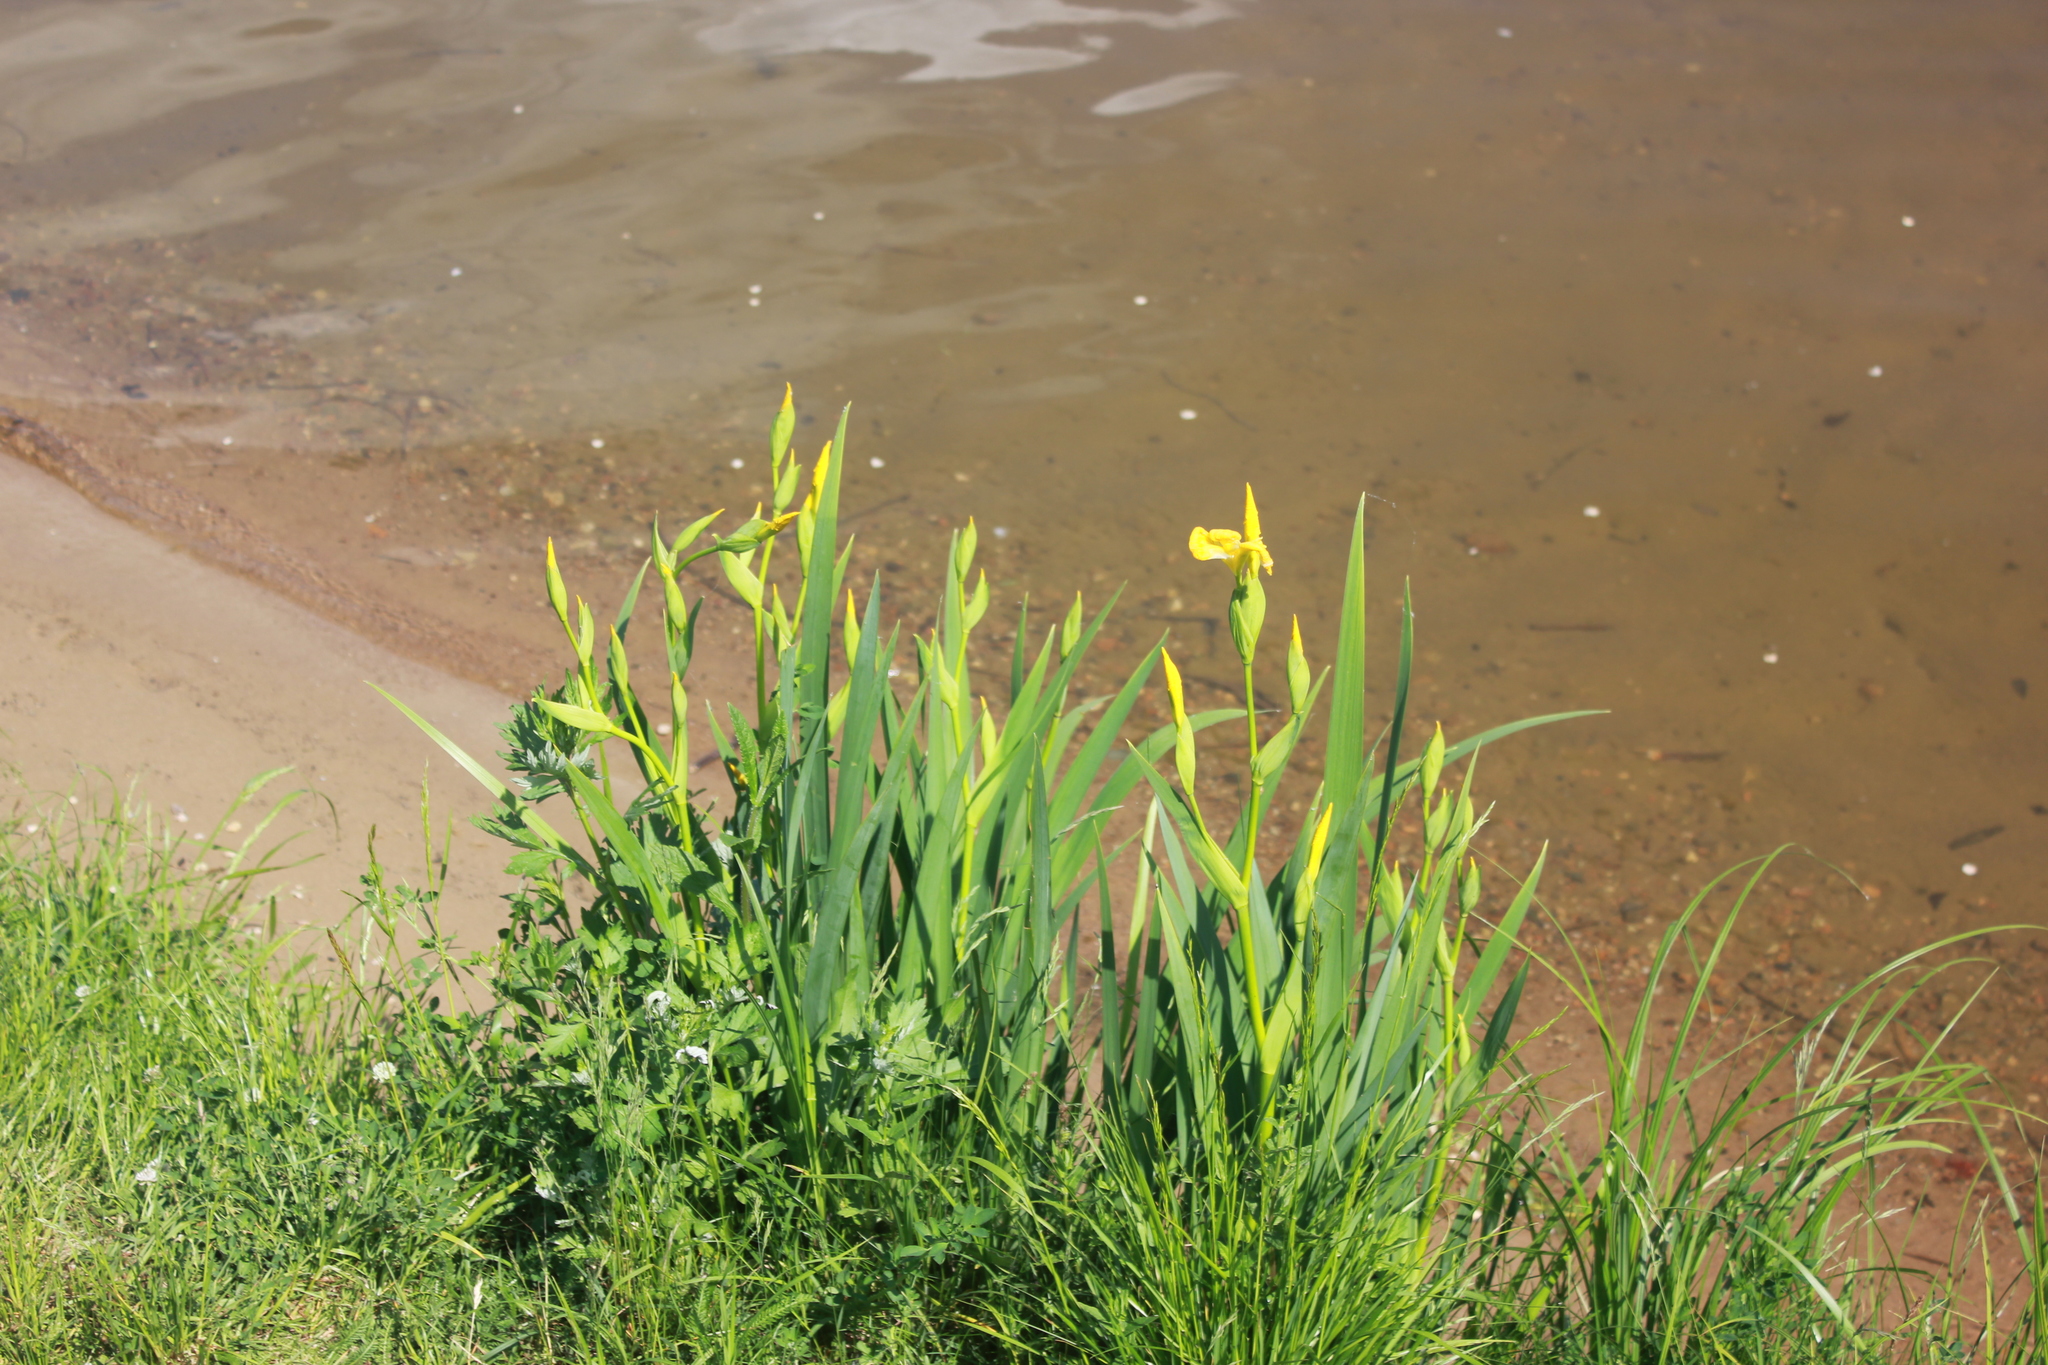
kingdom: Plantae
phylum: Tracheophyta
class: Liliopsida
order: Asparagales
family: Iridaceae
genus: Iris
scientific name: Iris pseudacorus
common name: Yellow flag
